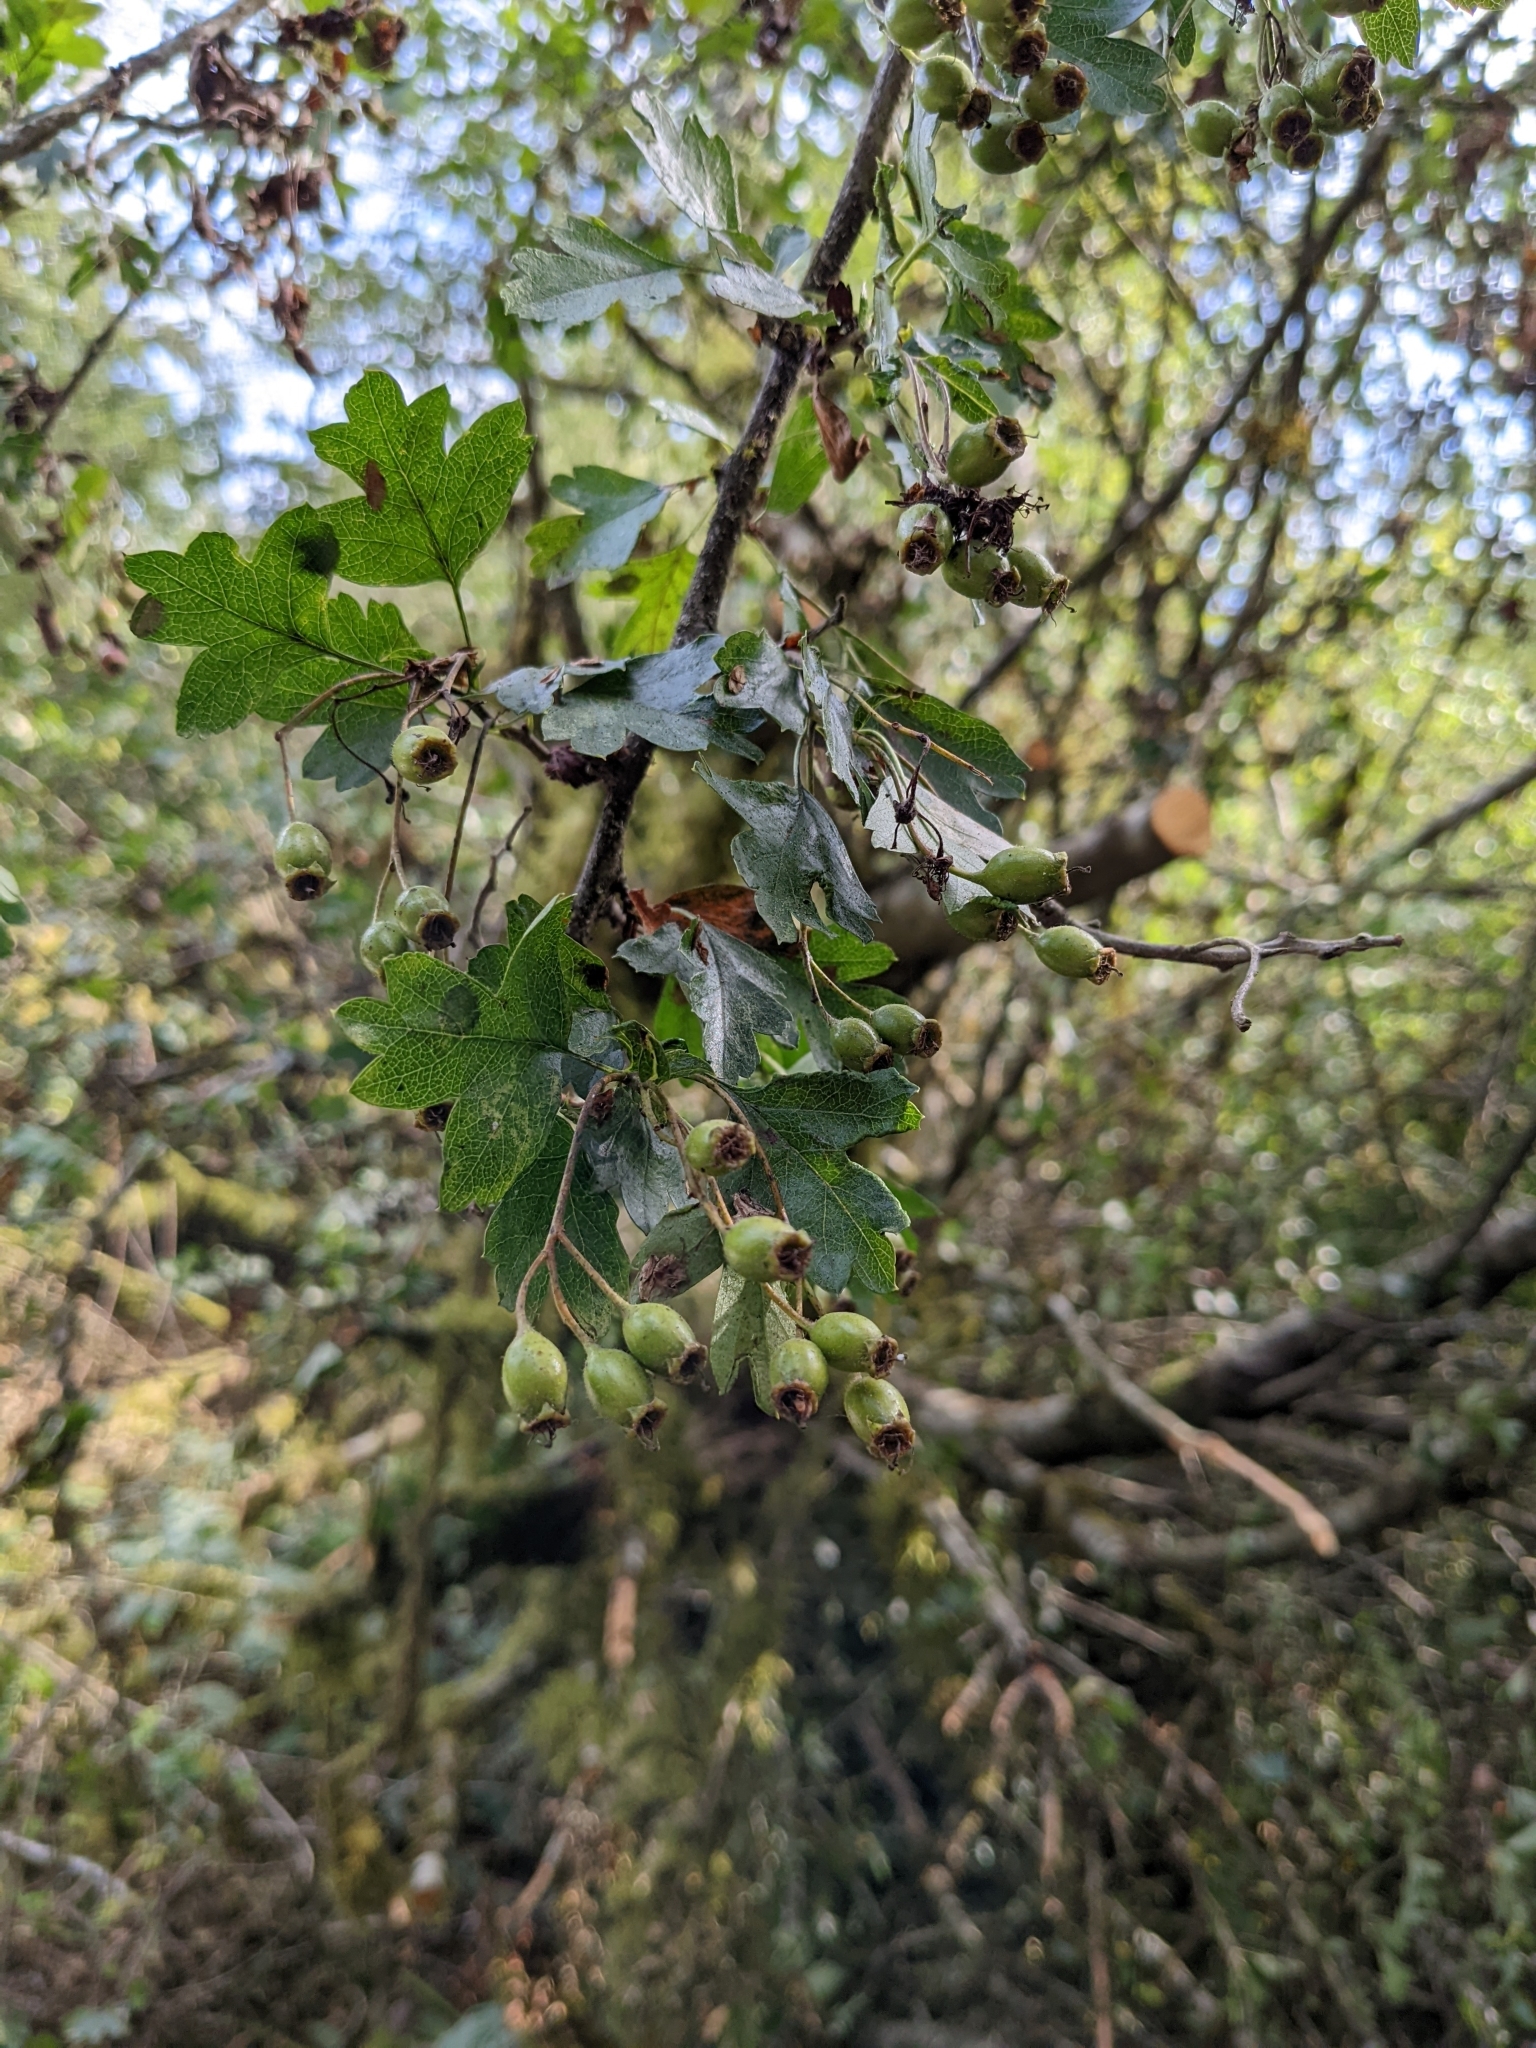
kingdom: Plantae
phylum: Tracheophyta
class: Magnoliopsida
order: Rosales
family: Rosaceae
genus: Crataegus
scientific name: Crataegus monogyna
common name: Hawthorn
